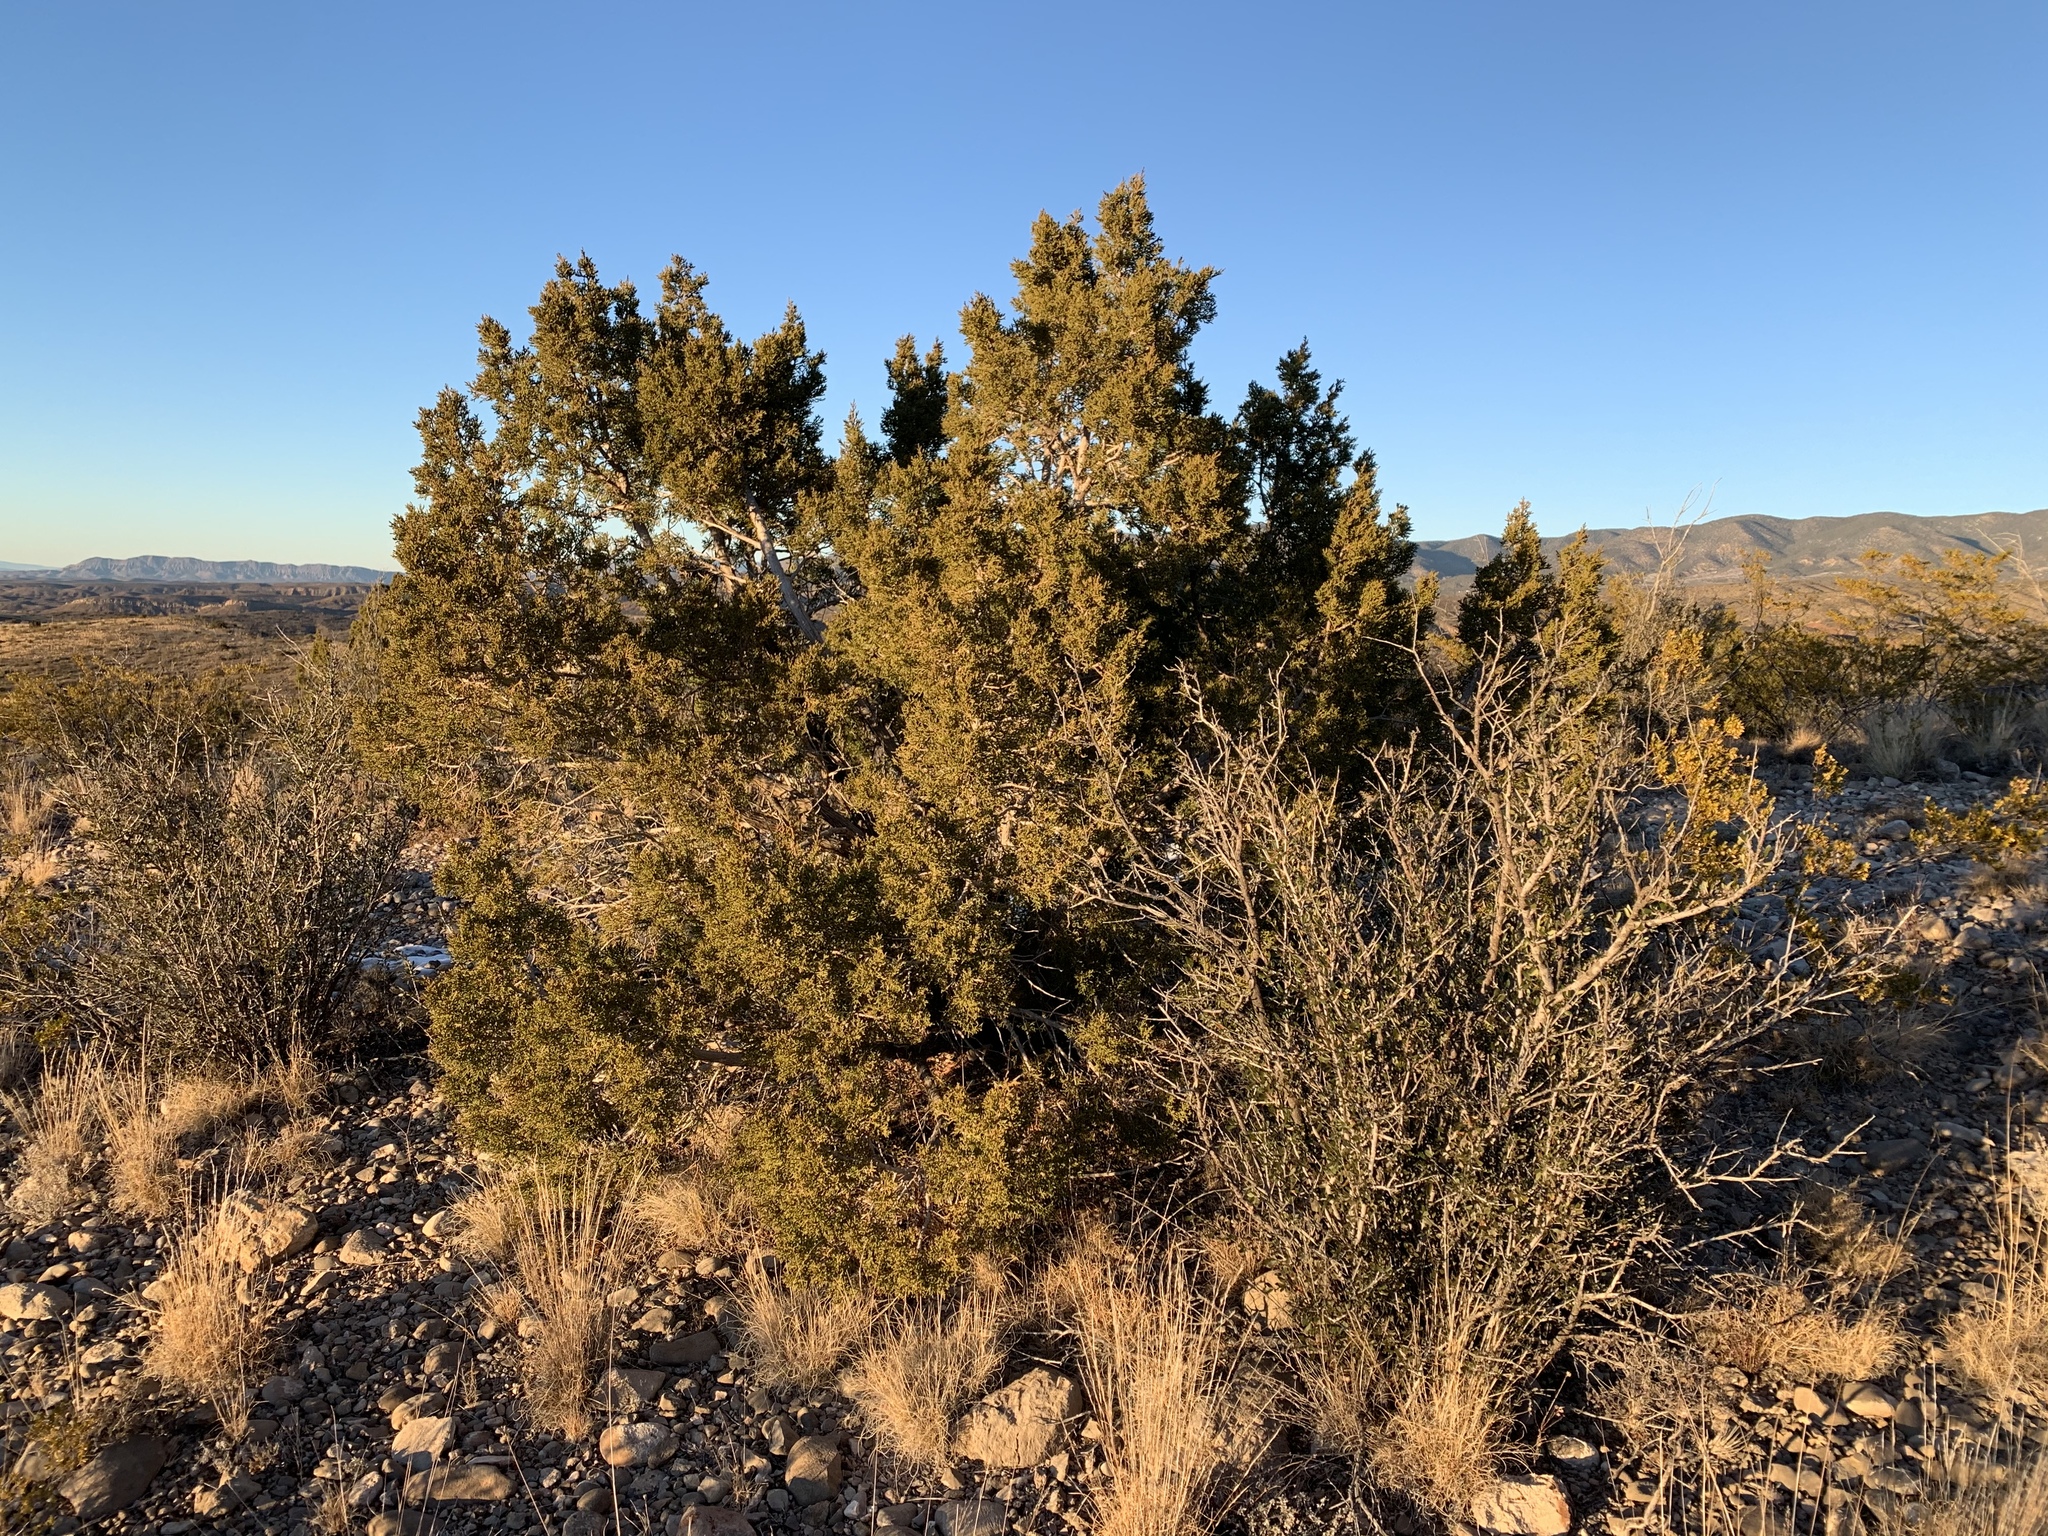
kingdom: Plantae
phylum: Tracheophyta
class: Pinopsida
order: Pinales
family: Cupressaceae
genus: Juniperus
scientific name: Juniperus monosperma
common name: One-seed juniper
